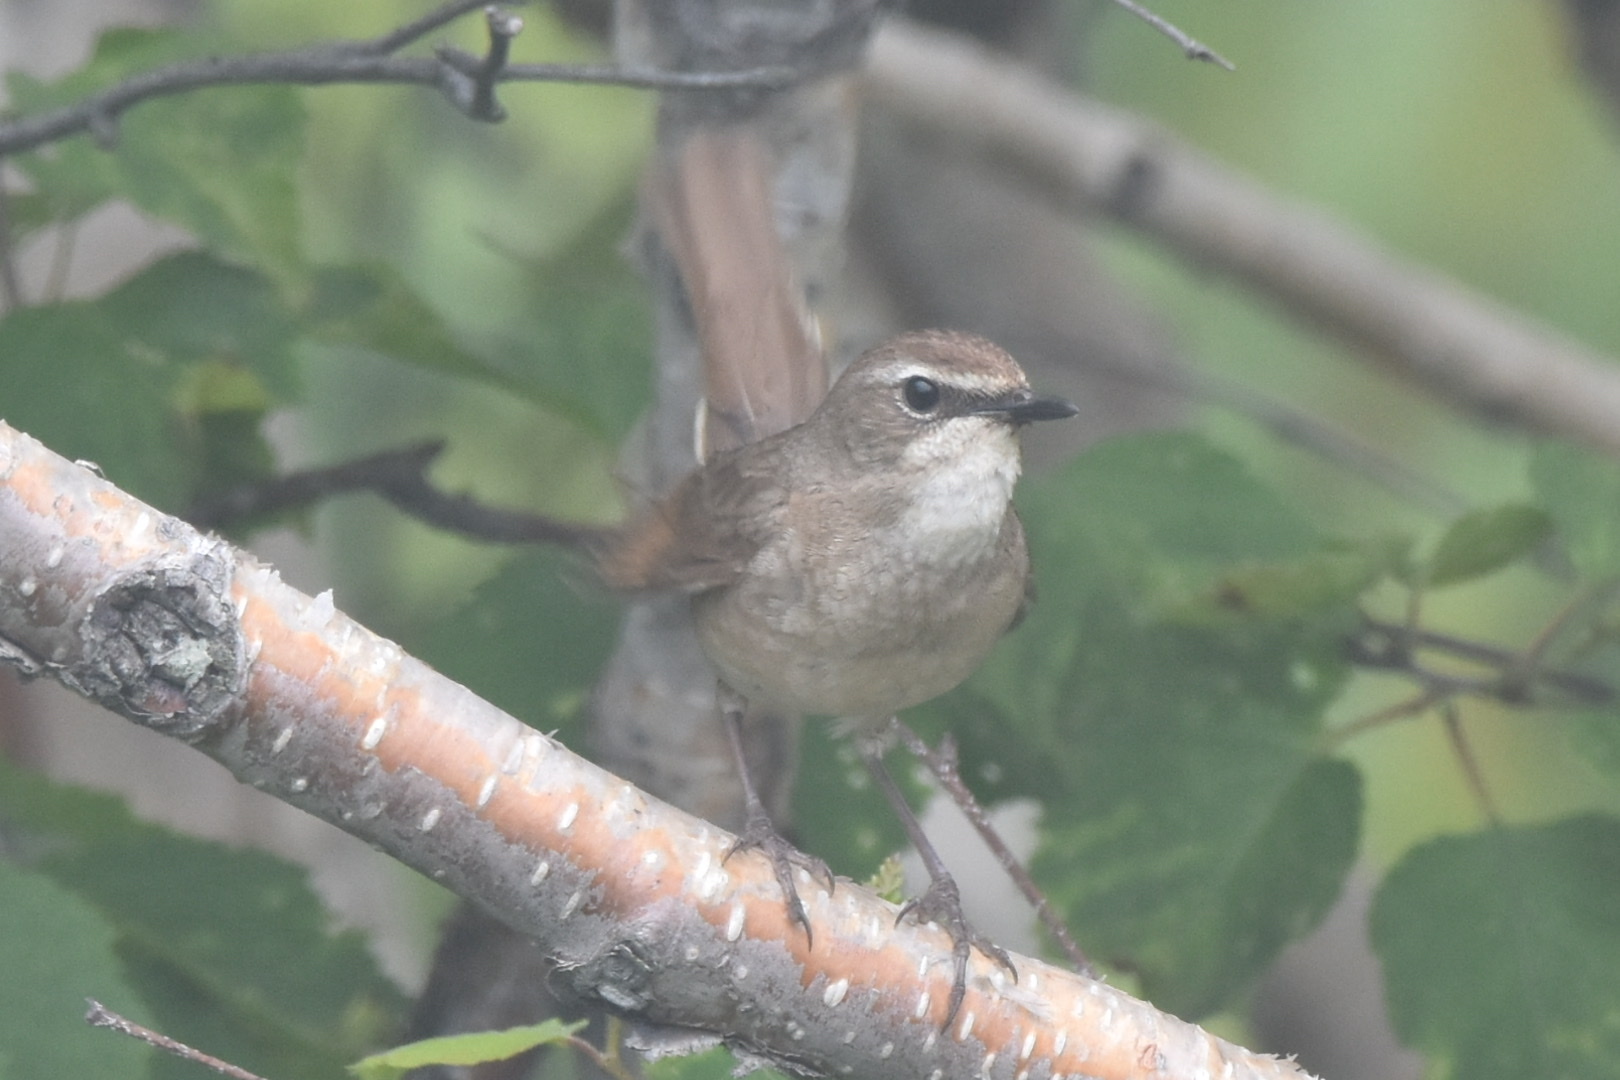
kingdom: Animalia
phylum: Chordata
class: Aves
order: Passeriformes
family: Muscicapidae
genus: Luscinia
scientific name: Luscinia calliope
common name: Siberian rubythroat
